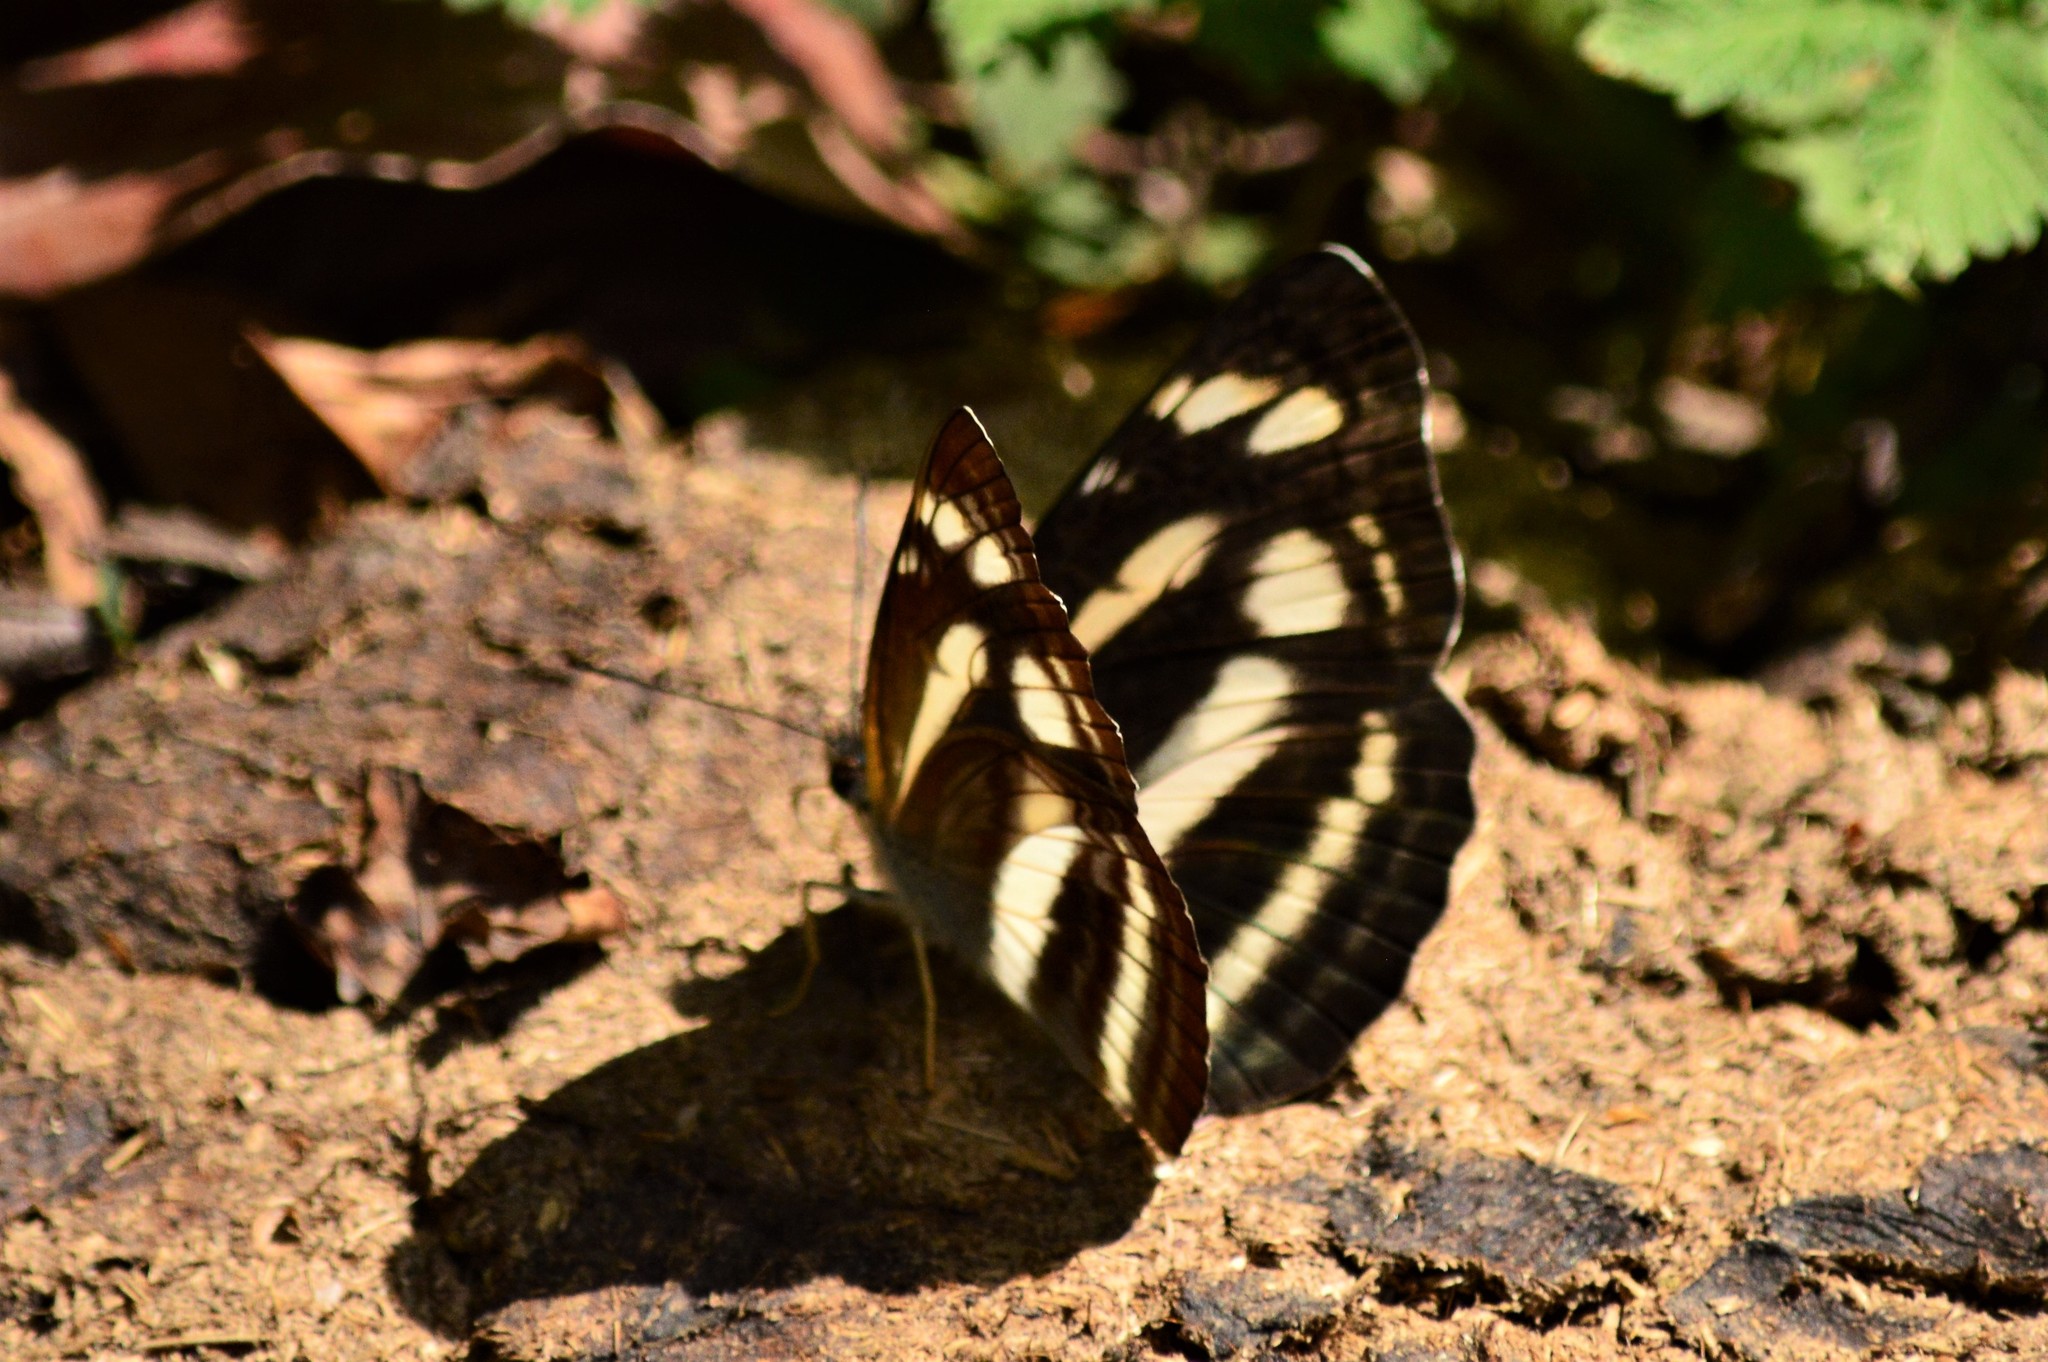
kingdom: Animalia
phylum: Arthropoda
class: Insecta
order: Lepidoptera
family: Nymphalidae
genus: Neptis
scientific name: Neptis narayana
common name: Broadstick sailer
